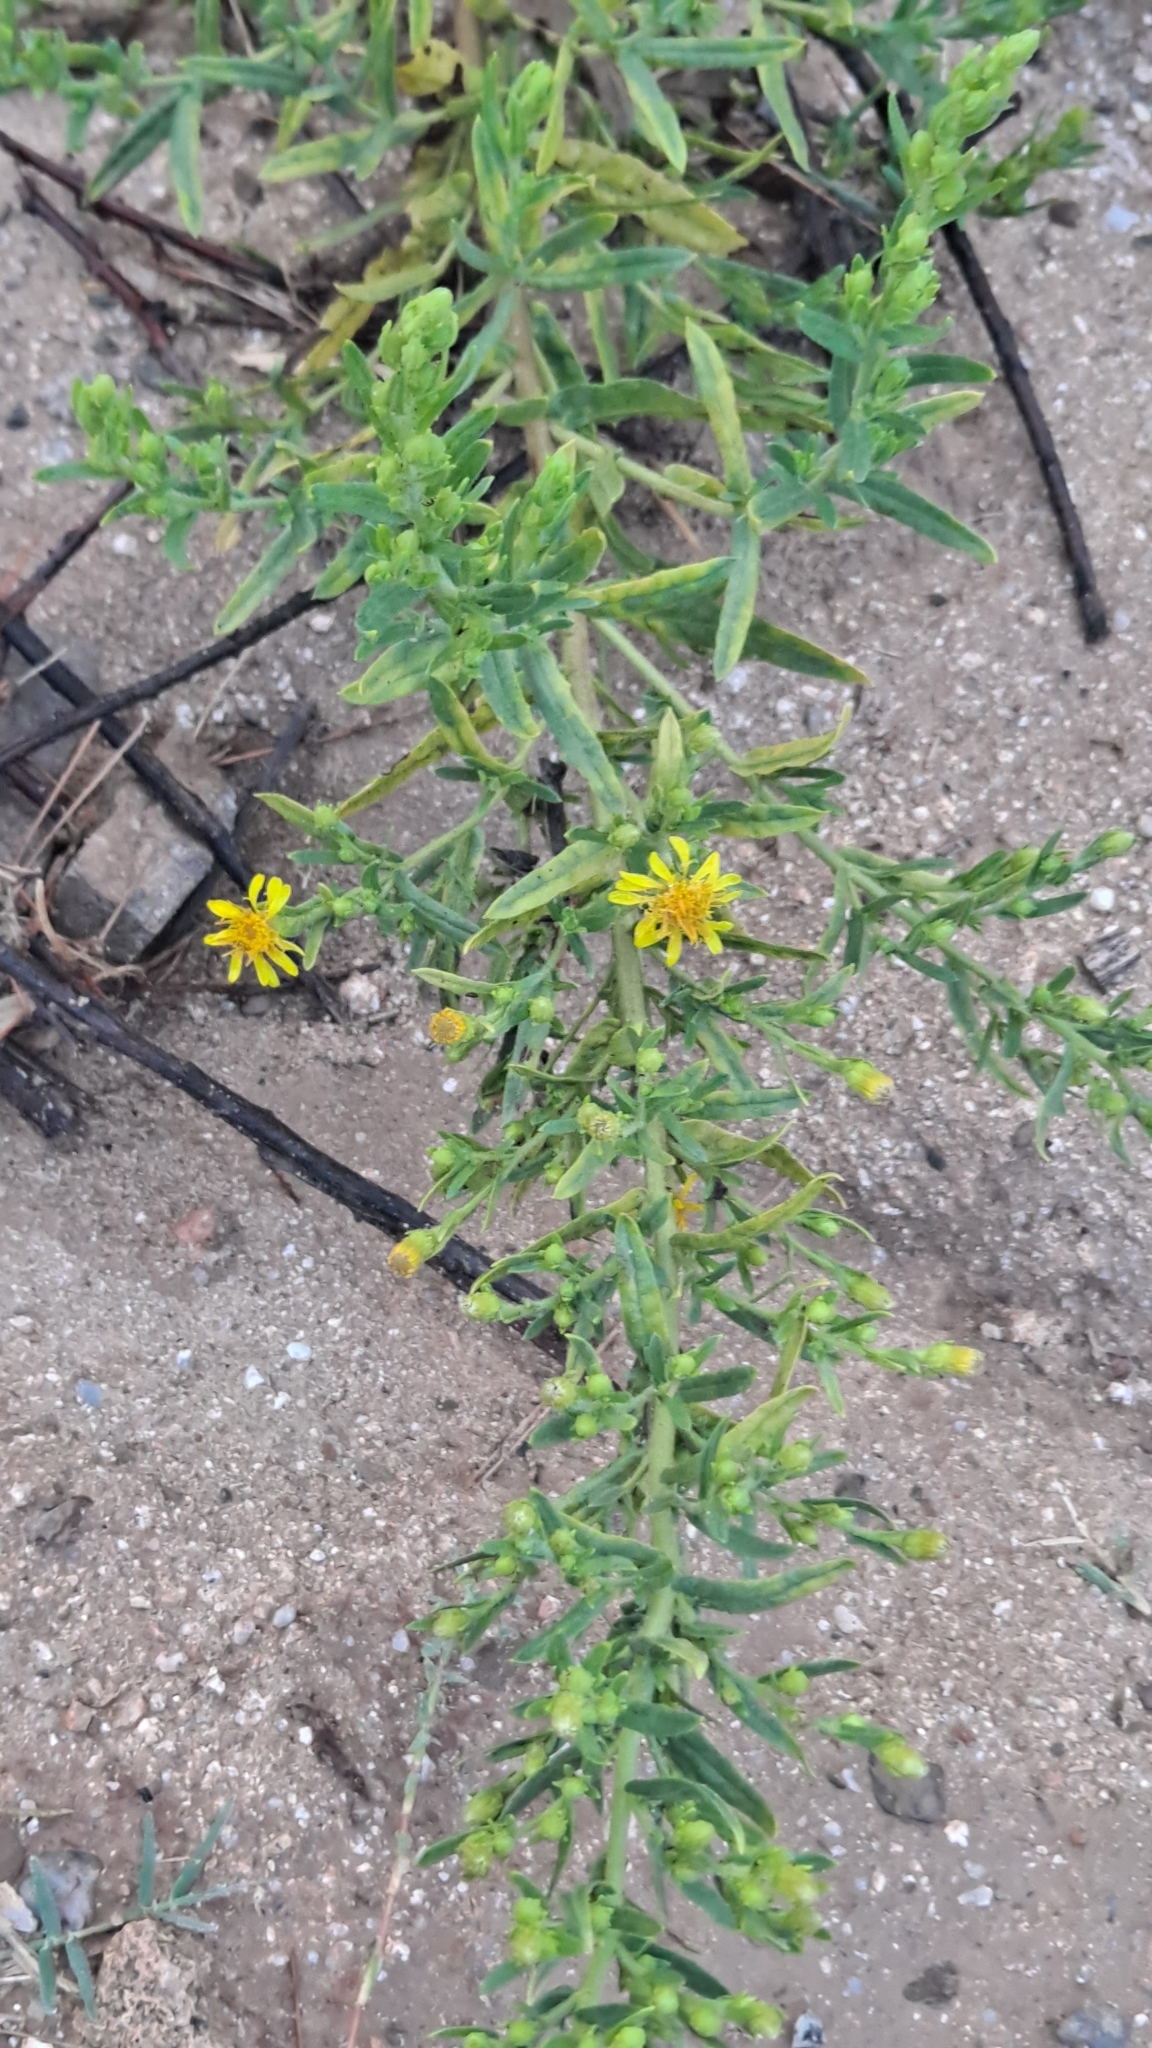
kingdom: Plantae
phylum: Tracheophyta
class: Magnoliopsida
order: Asterales
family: Asteraceae
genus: Dittrichia
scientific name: Dittrichia viscosa
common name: Woody fleabane
